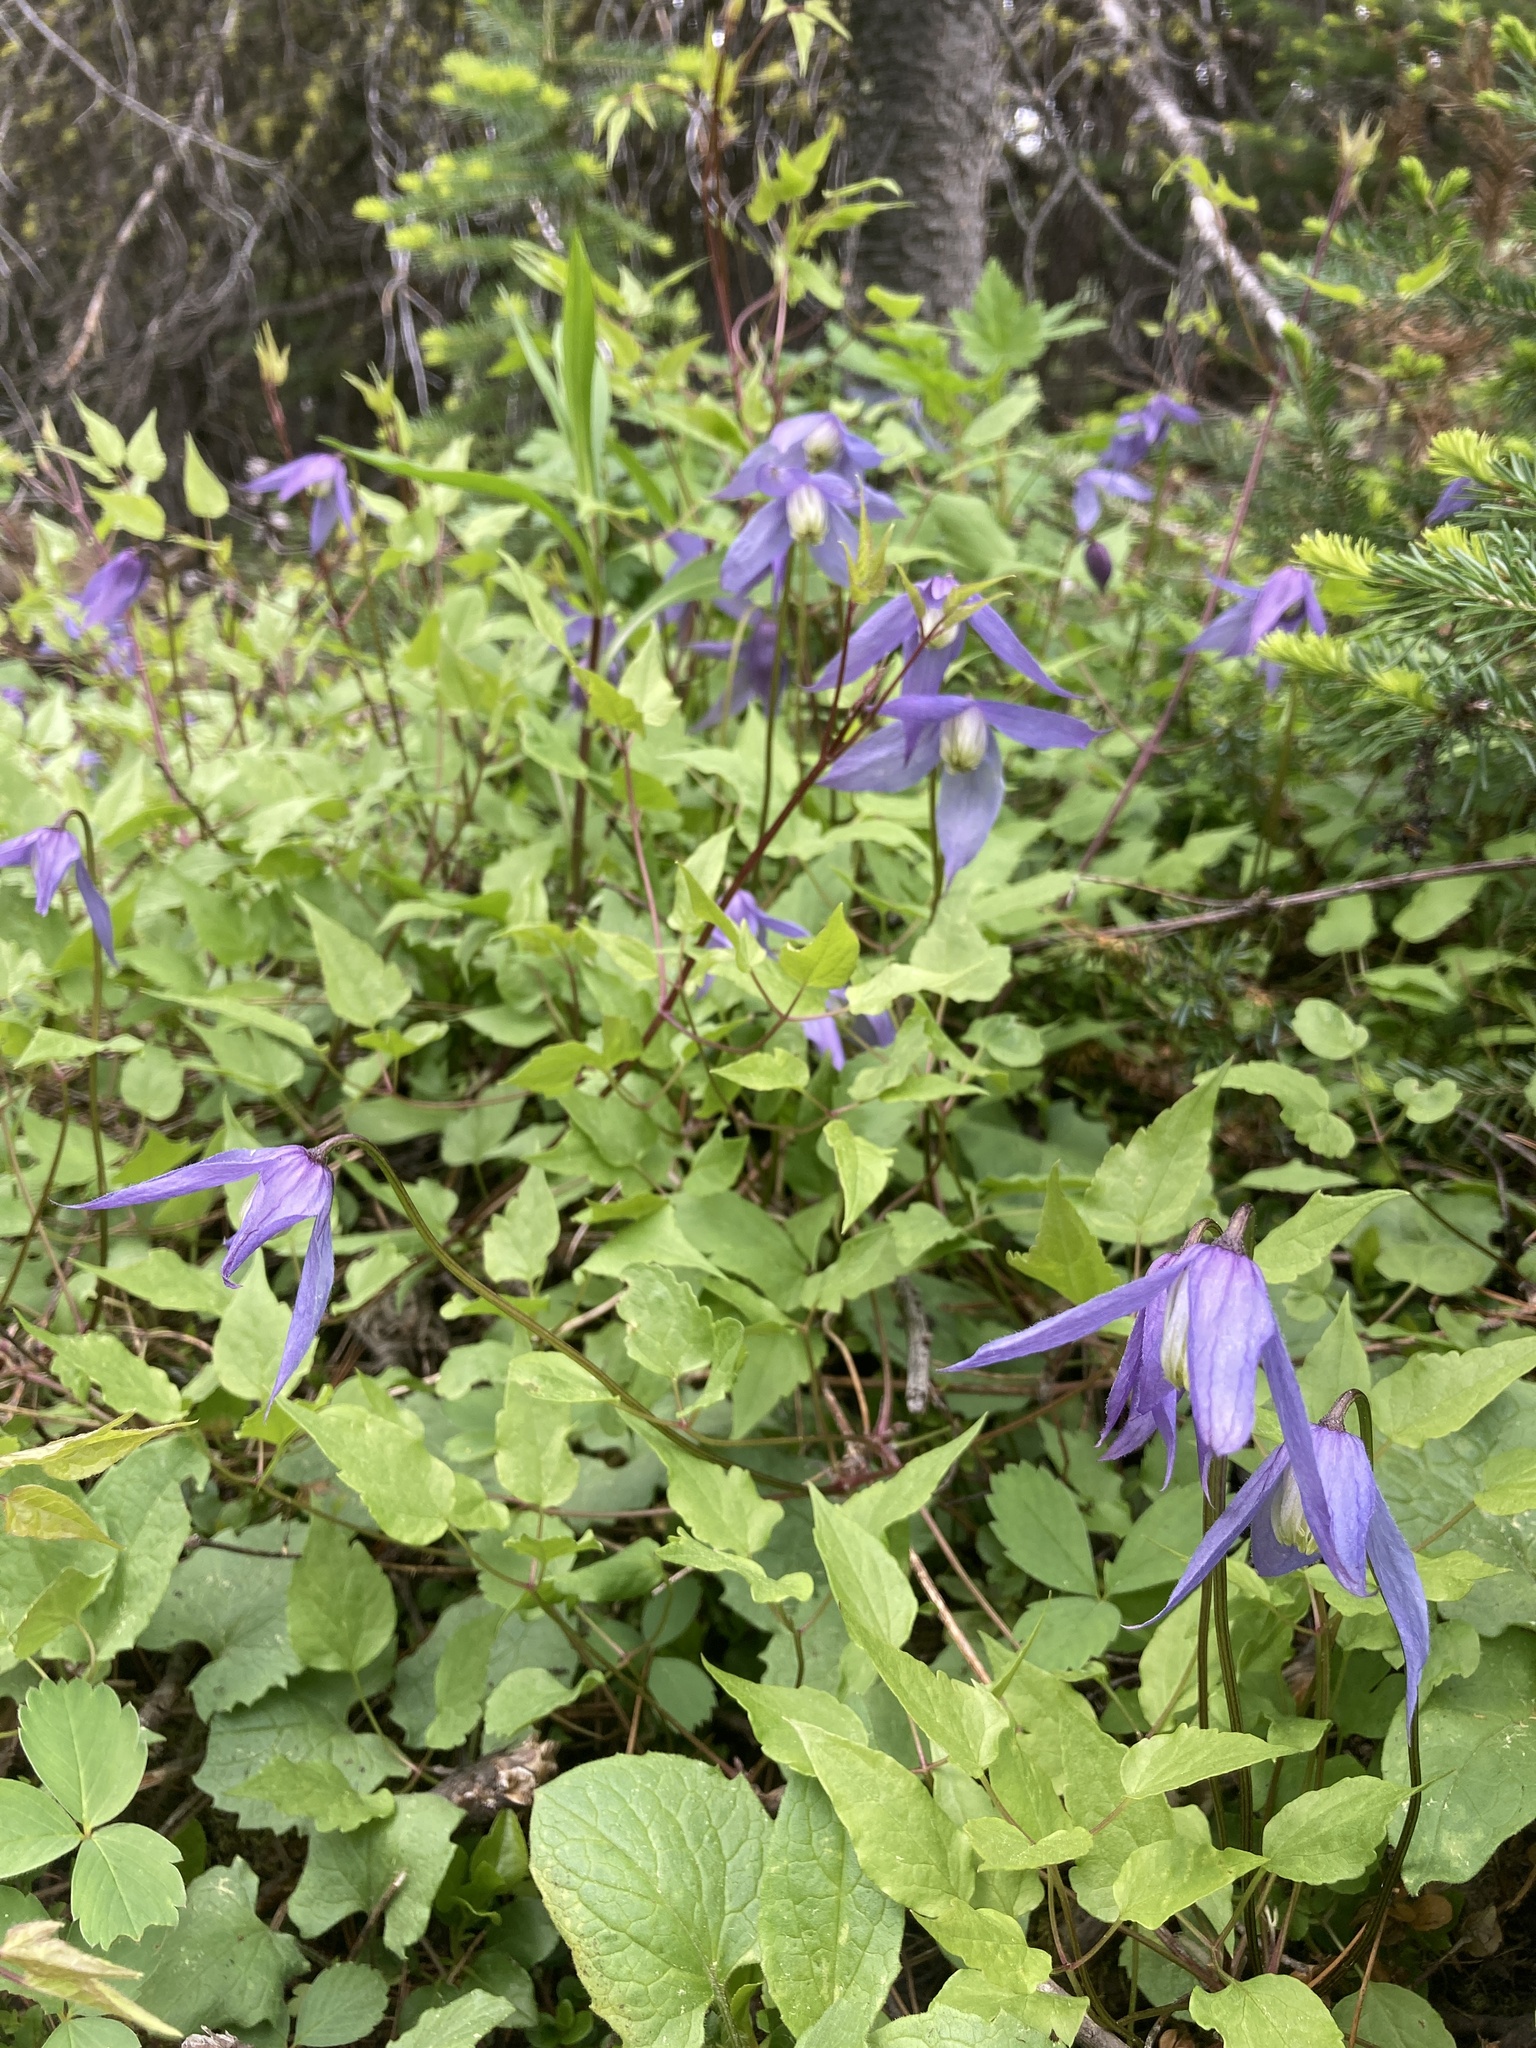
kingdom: Plantae
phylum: Tracheophyta
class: Magnoliopsida
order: Ranunculales
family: Ranunculaceae
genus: Clematis
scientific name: Clematis occidentalis
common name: Purple clematis
